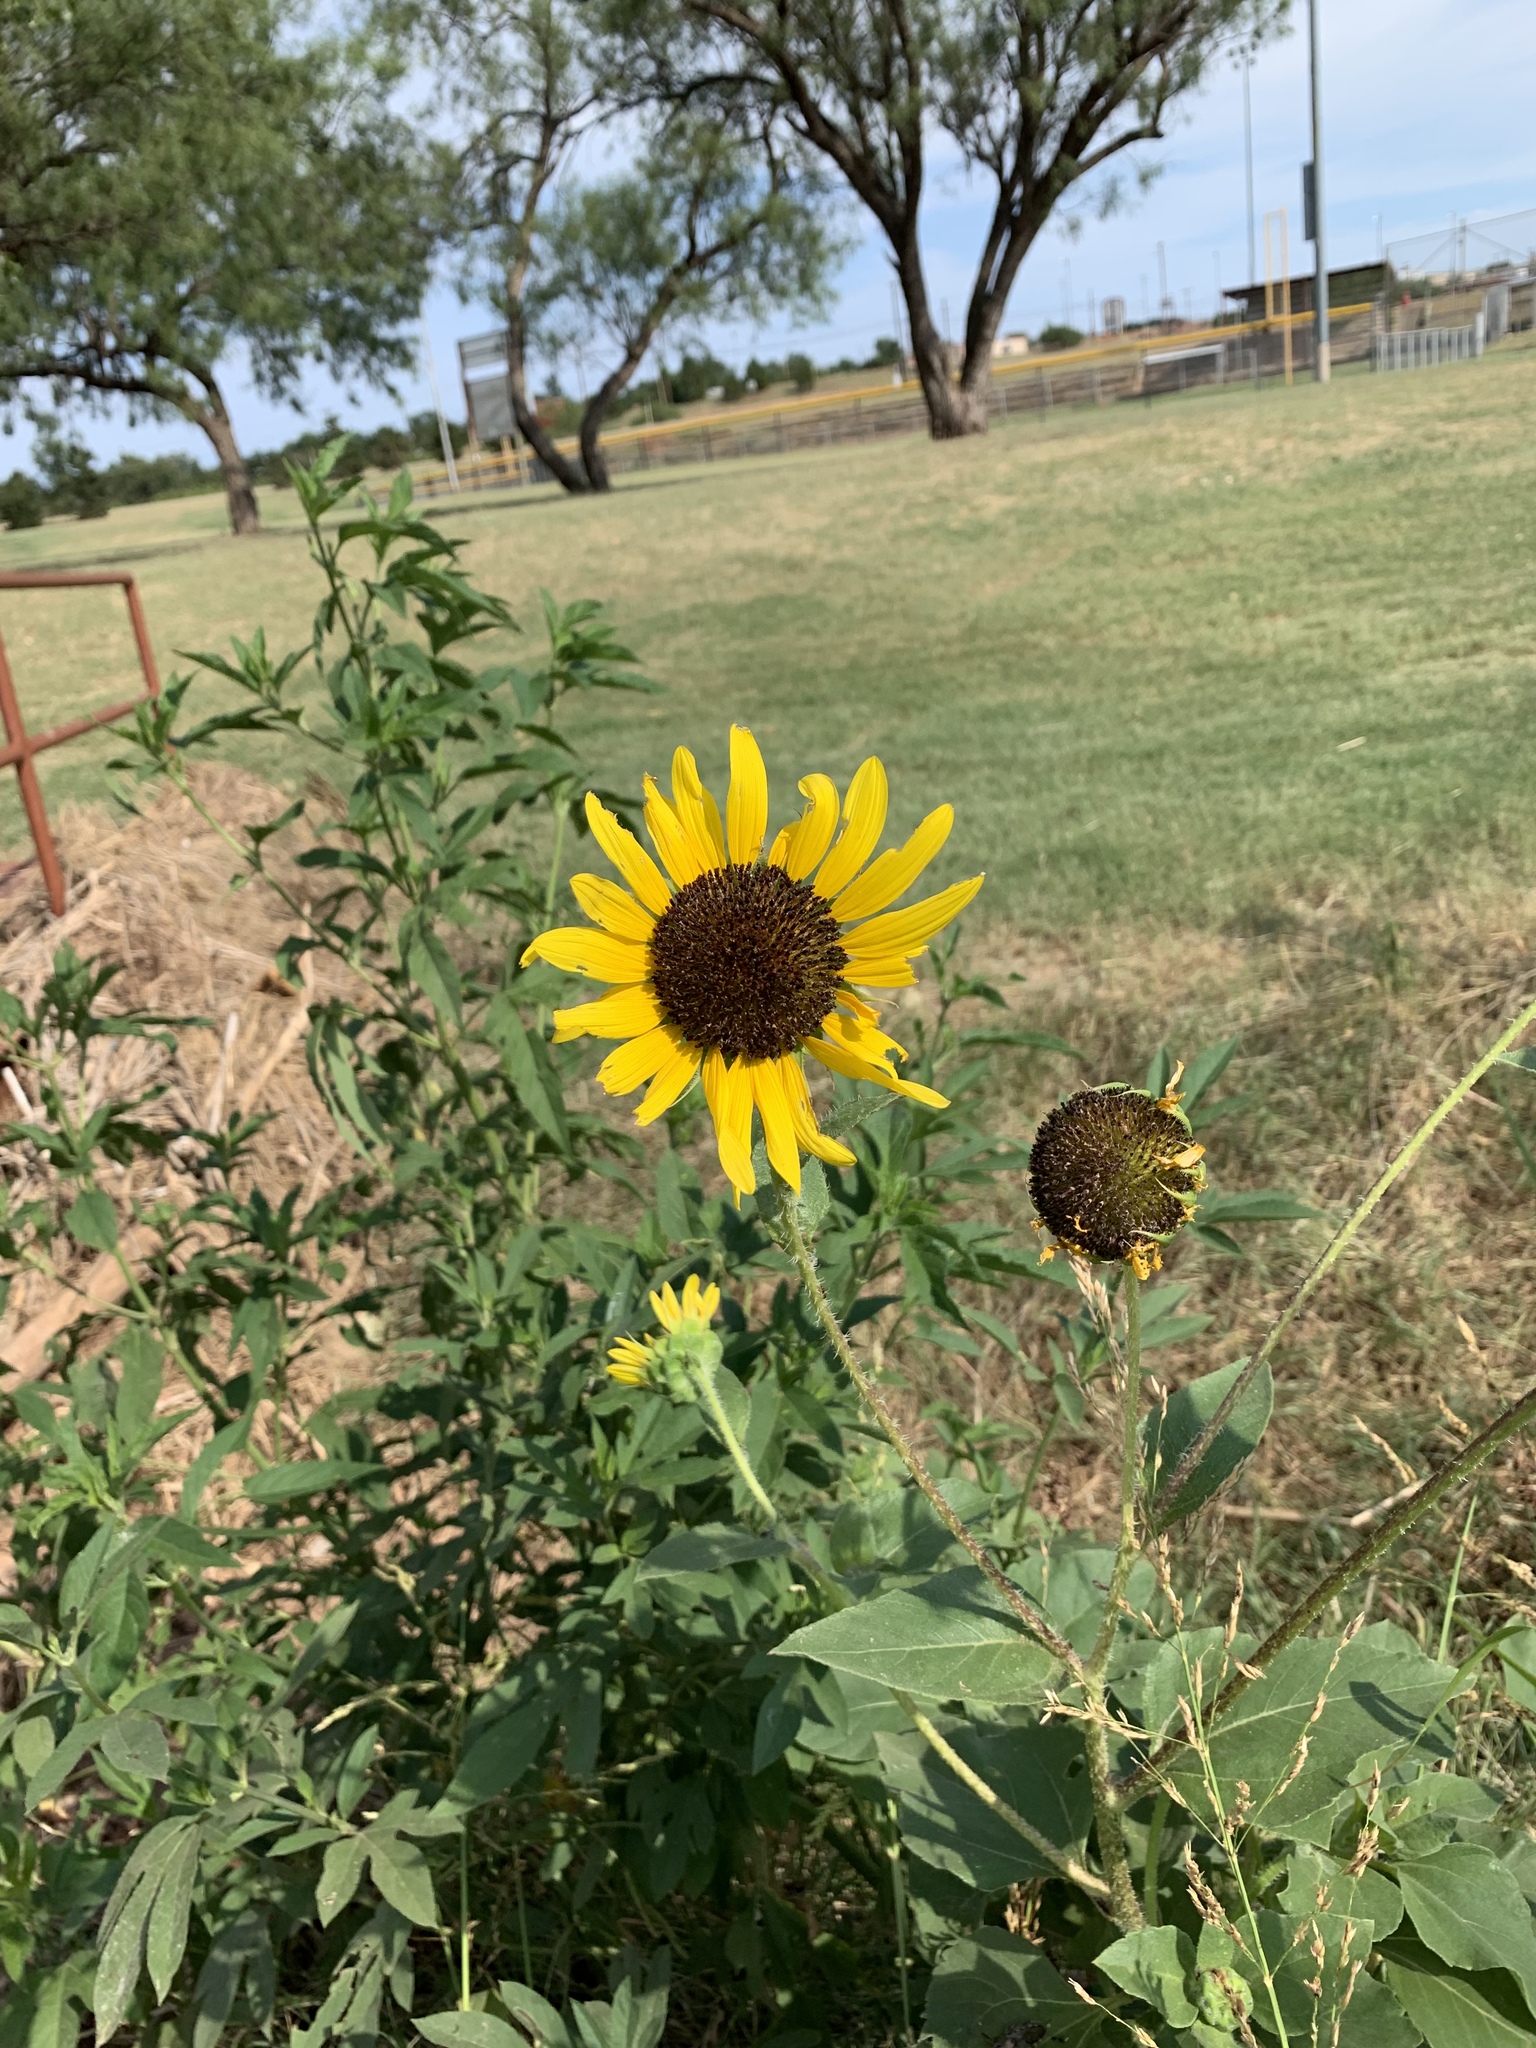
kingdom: Plantae
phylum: Tracheophyta
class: Magnoliopsida
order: Asterales
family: Asteraceae
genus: Helianthus
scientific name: Helianthus annuus
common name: Sunflower
